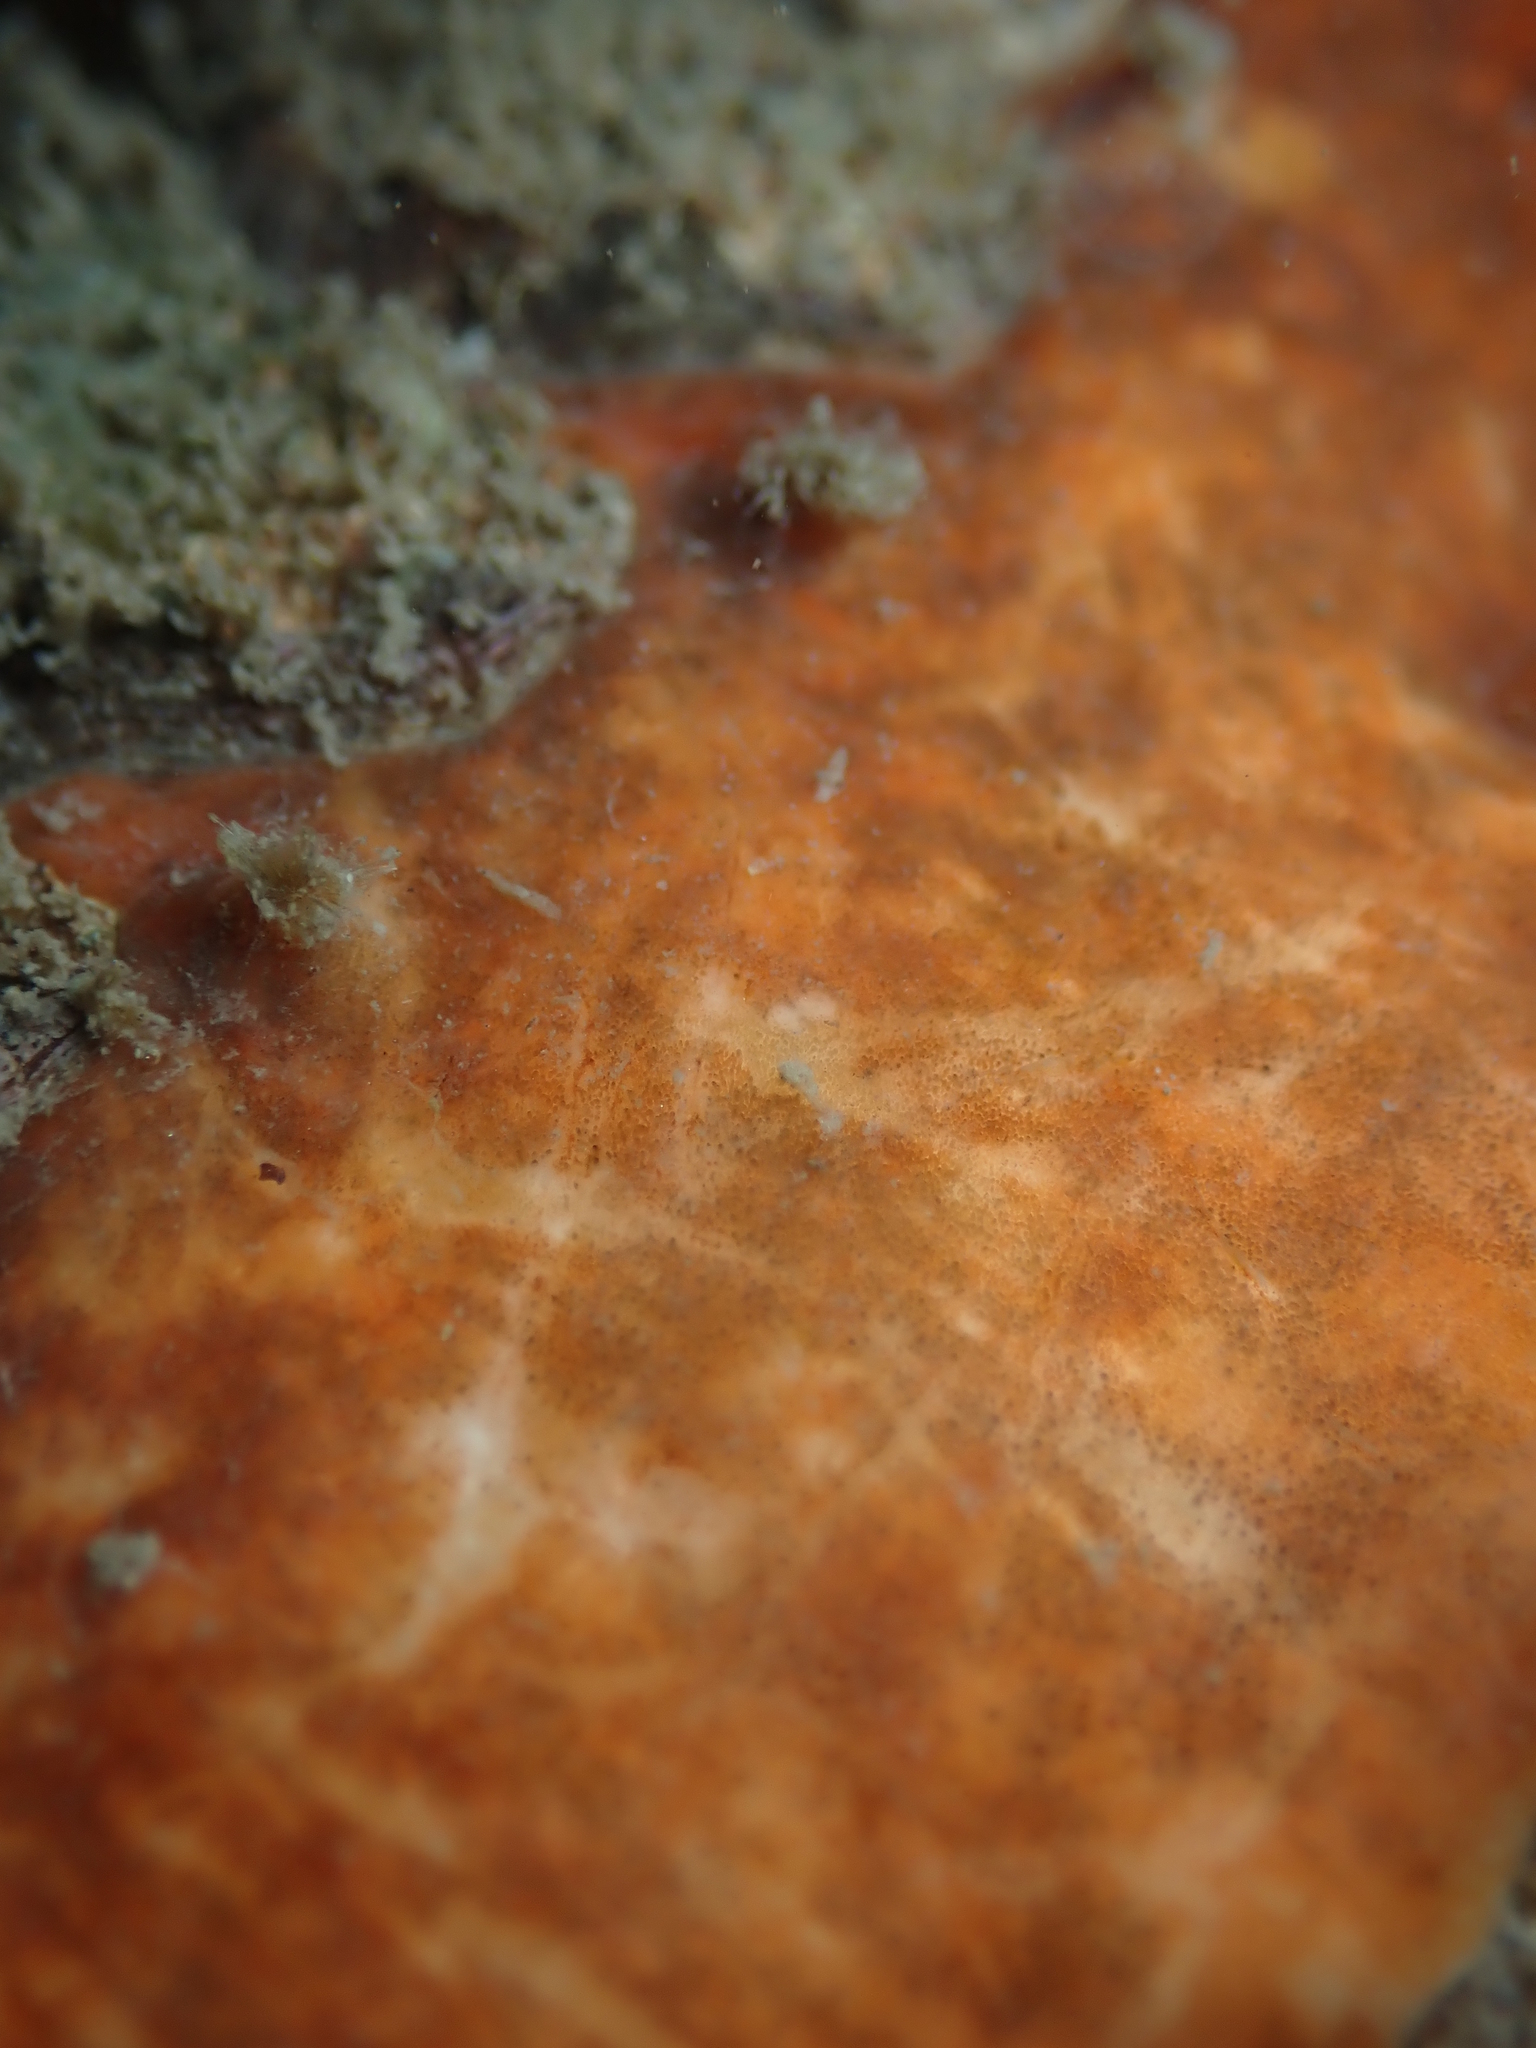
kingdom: Animalia
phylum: Mollusca
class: Polyplacophora
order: Chitonida
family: Acanthochitonidae
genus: Notoplax
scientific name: Notoplax violacea
